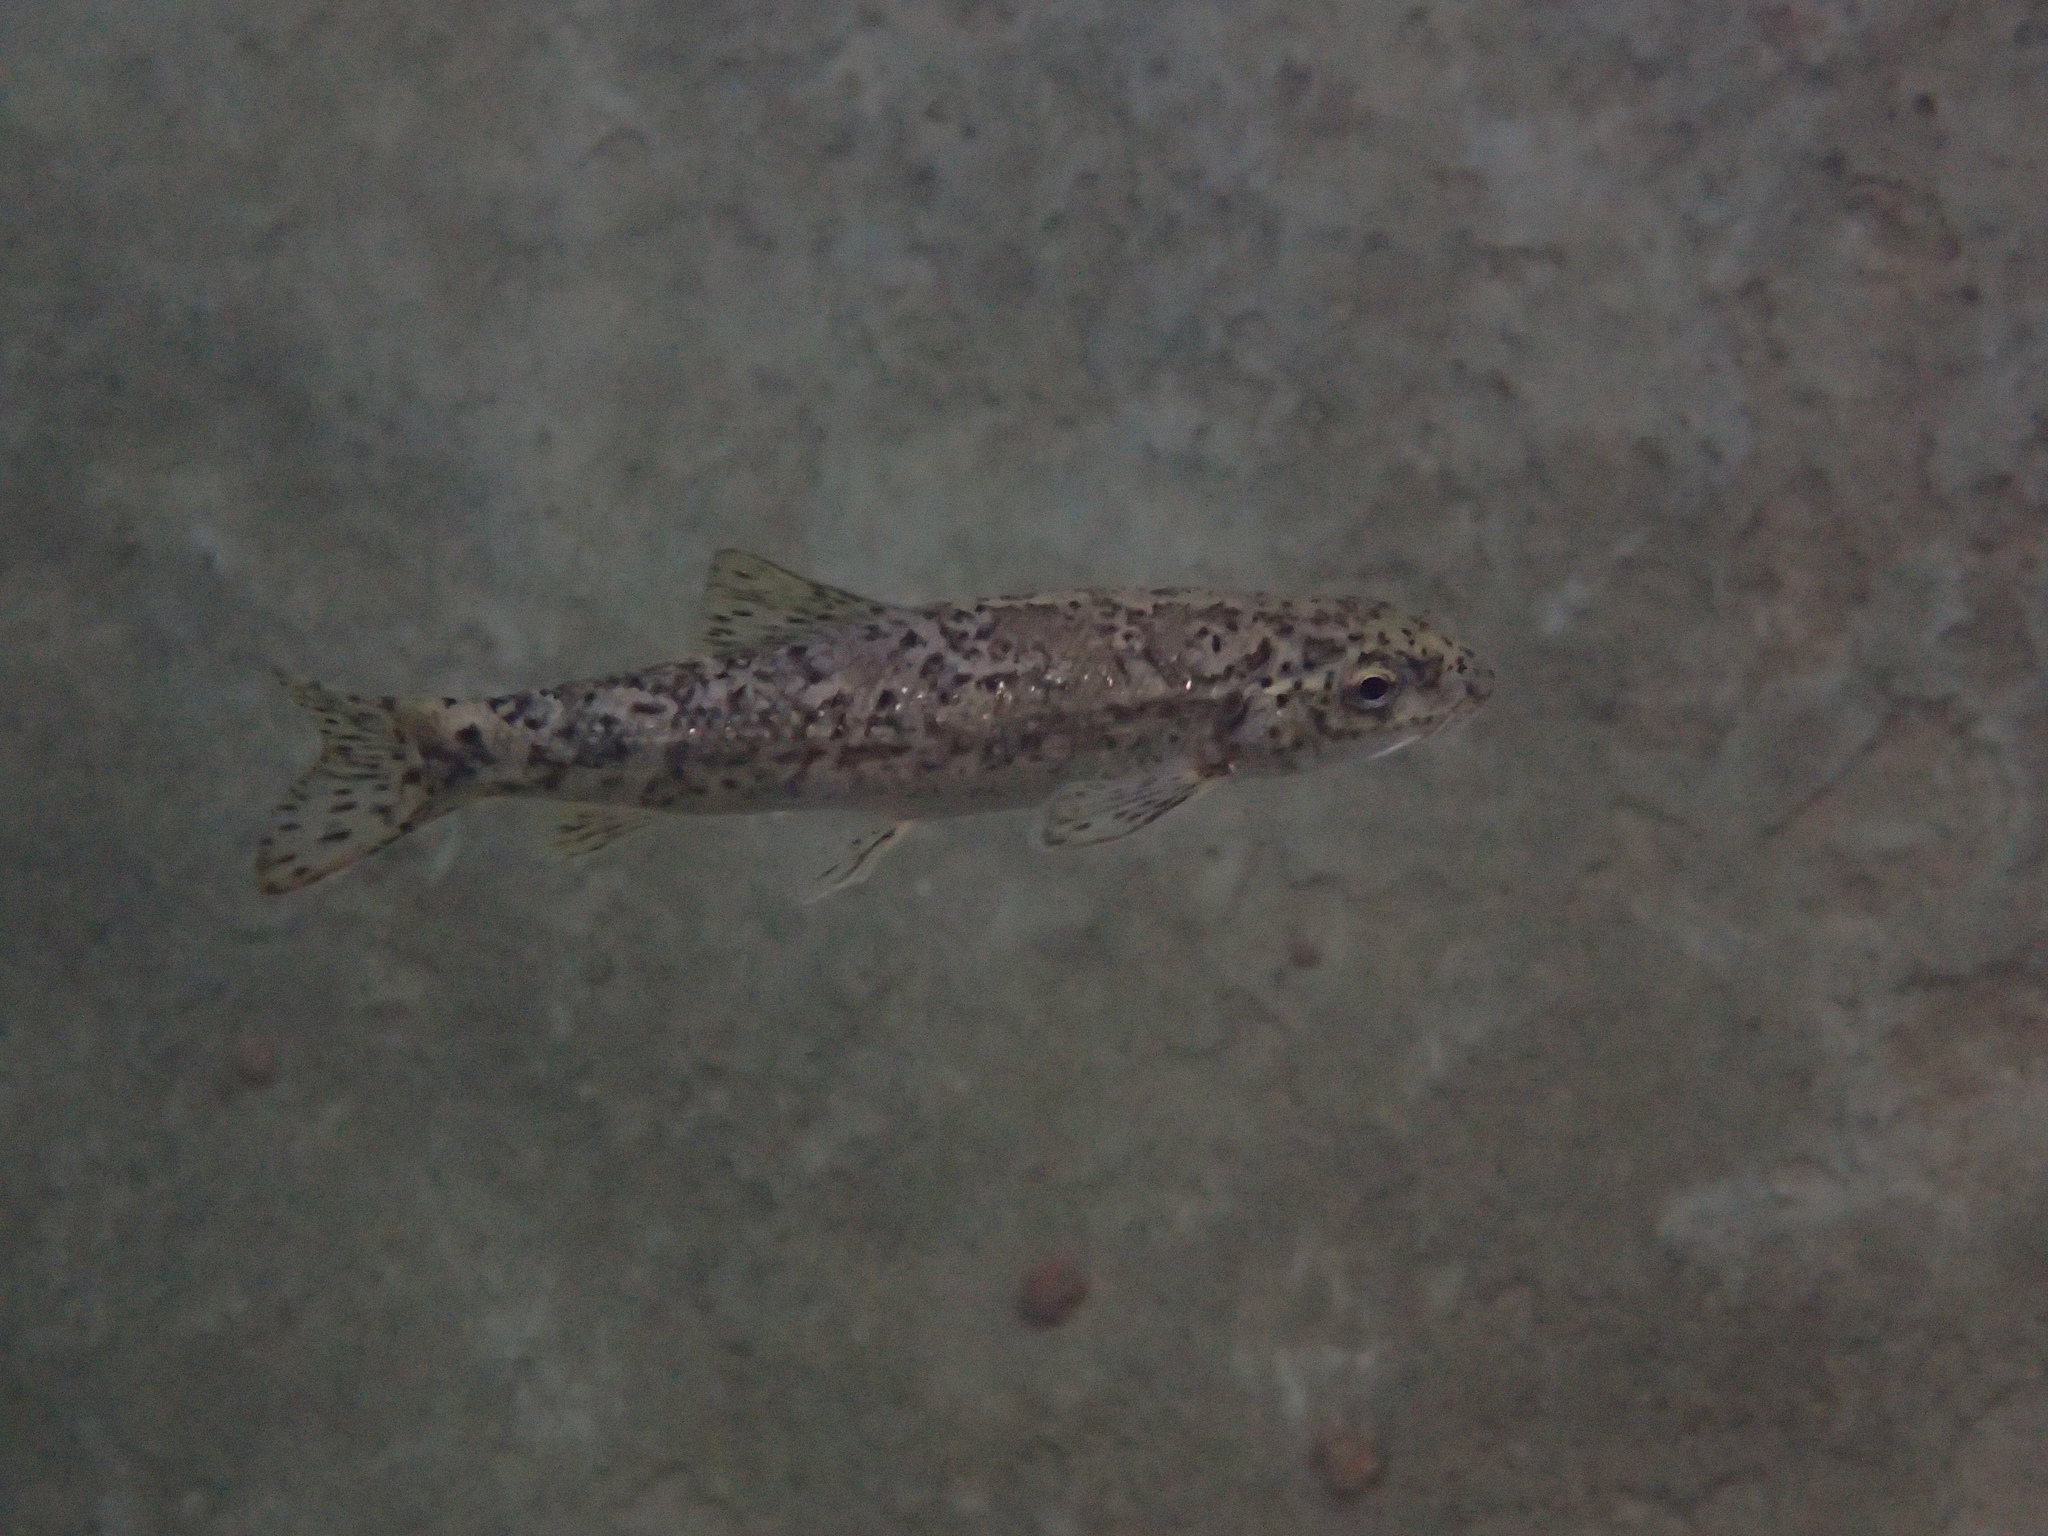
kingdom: Animalia
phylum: Chordata
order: Cypriniformes
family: Cyprinidae
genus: Barbus
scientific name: Barbus meridionalis
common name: Mediterranean barbel
